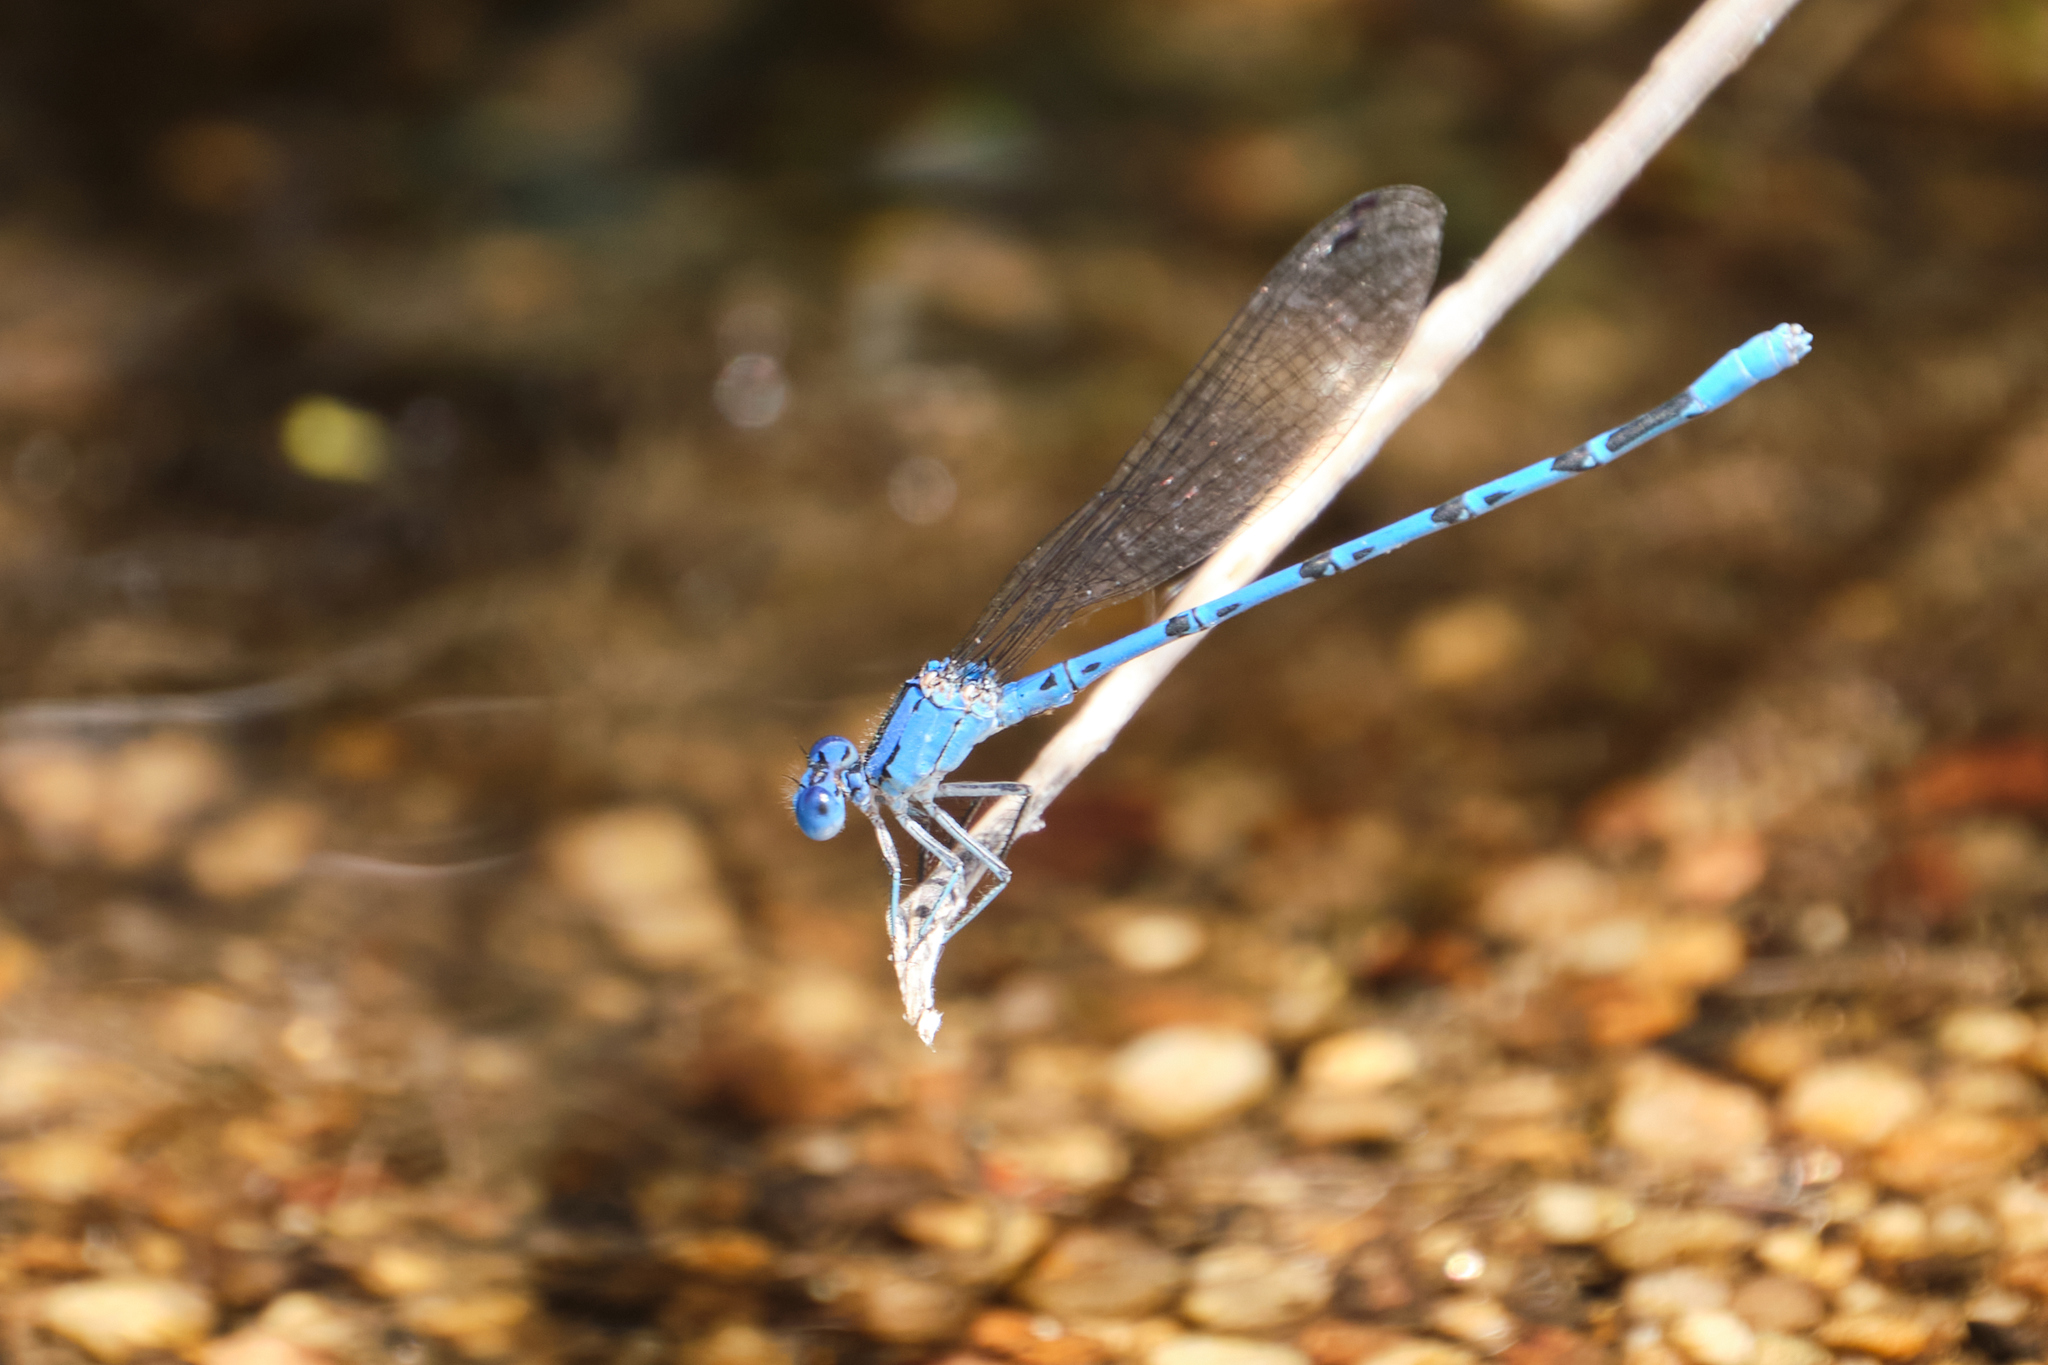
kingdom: Animalia
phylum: Arthropoda
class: Insecta
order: Odonata
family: Coenagrionidae
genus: Argia
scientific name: Argia vivida
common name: Vivid dancer
